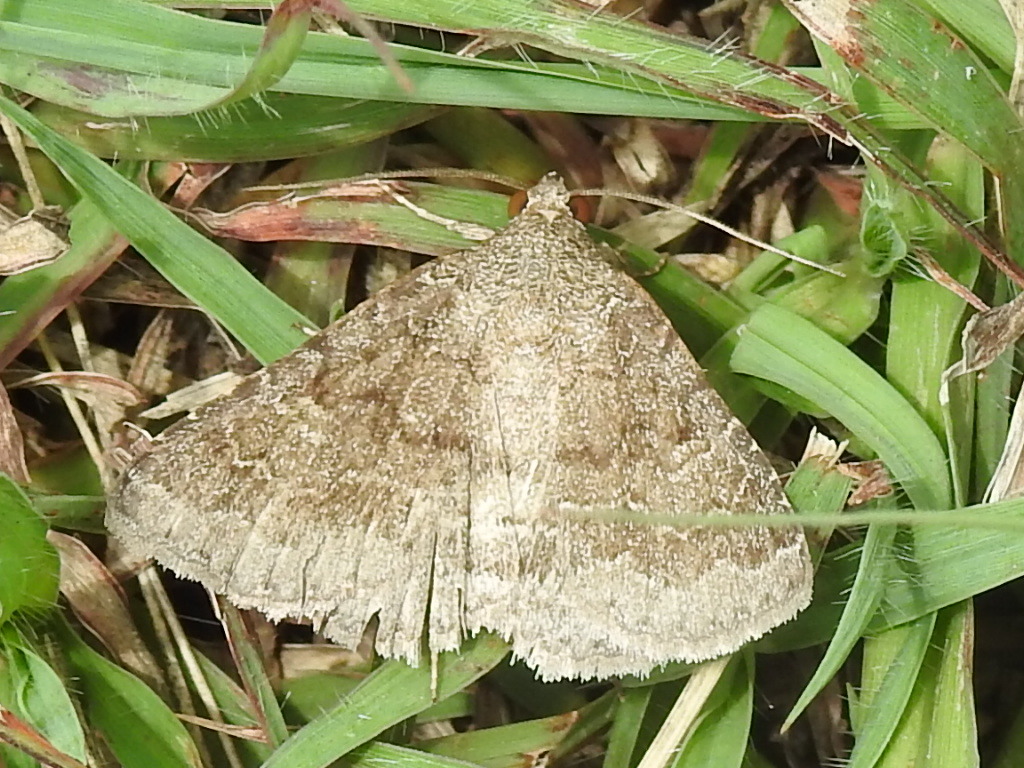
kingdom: Animalia
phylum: Arthropoda
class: Insecta
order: Lepidoptera
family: Erebidae
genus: Matigramma
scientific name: Matigramma pulverilinea
